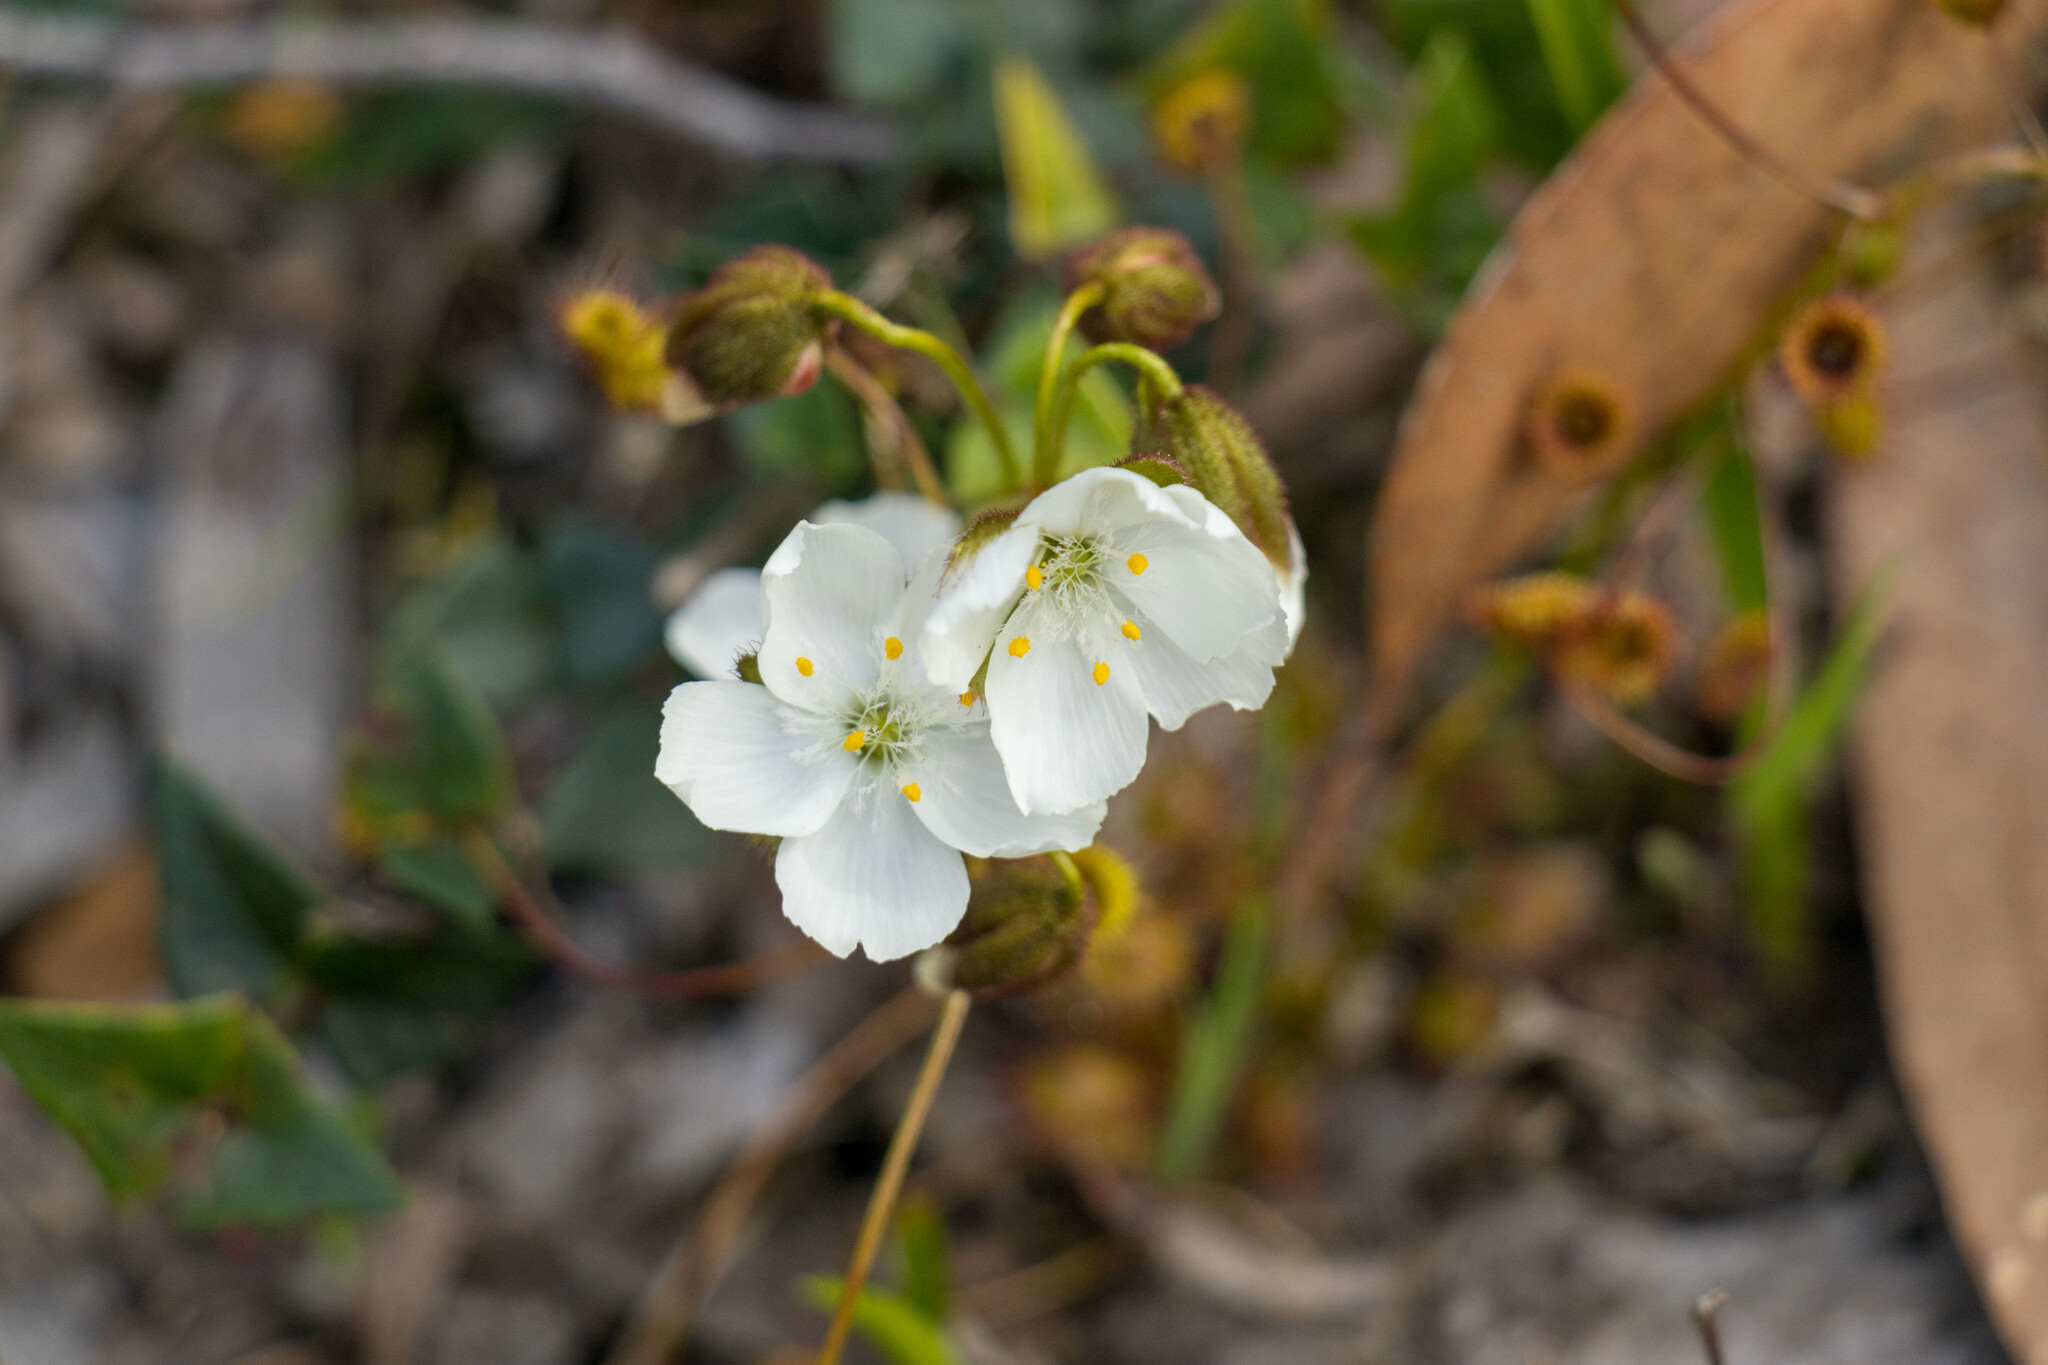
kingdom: Plantae
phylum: Tracheophyta
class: Magnoliopsida
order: Caryophyllales
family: Droseraceae
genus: Drosera
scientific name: Drosera planchonii
